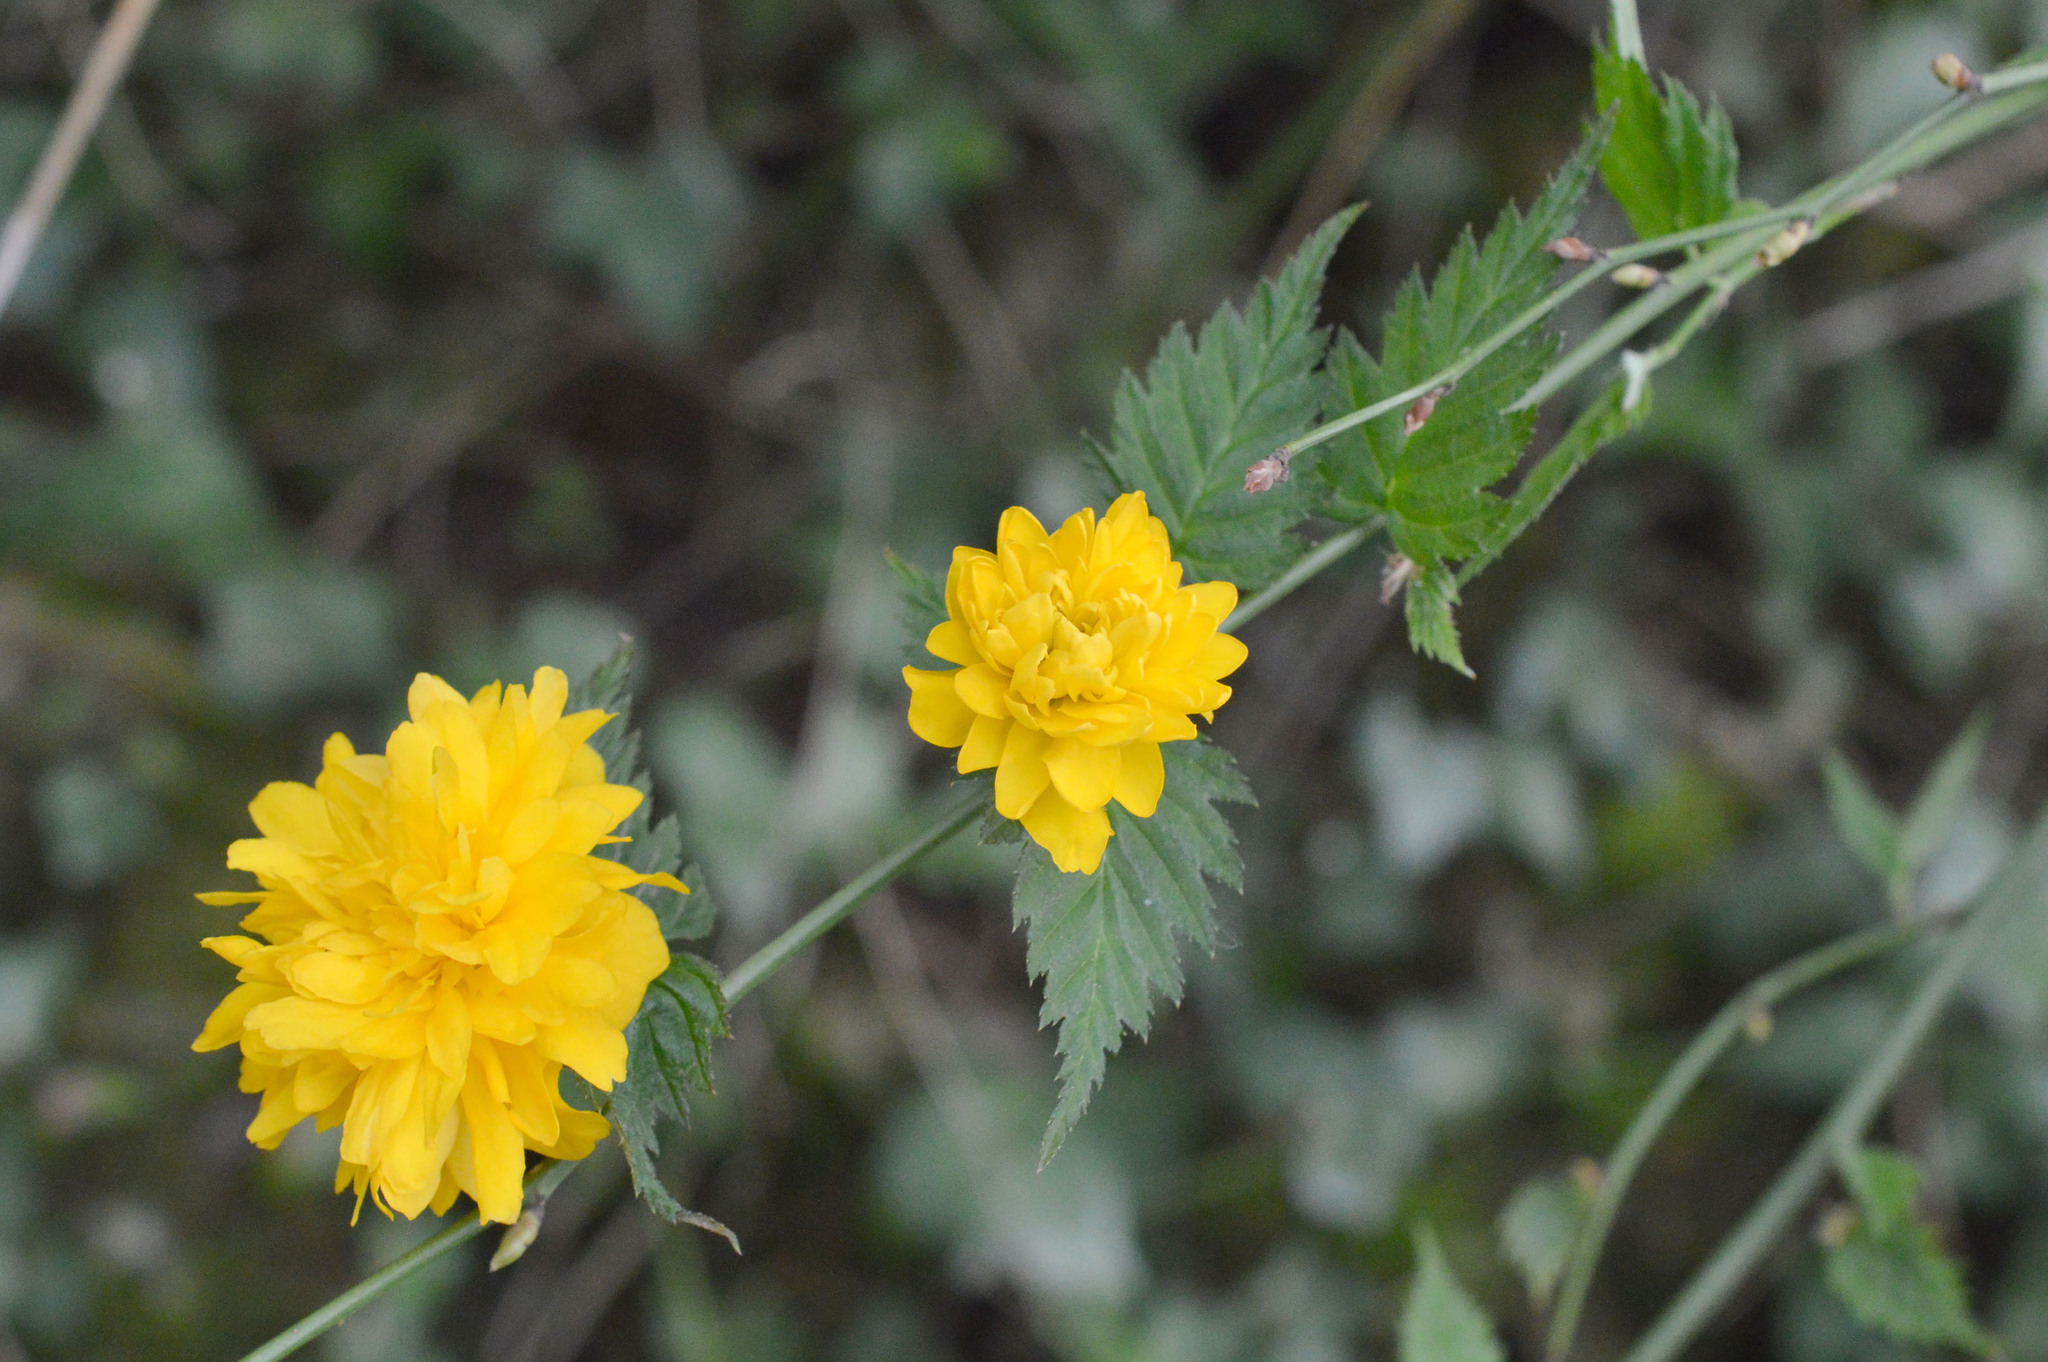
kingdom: Plantae
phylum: Tracheophyta
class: Magnoliopsida
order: Rosales
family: Rosaceae
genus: Kerria
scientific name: Kerria japonica
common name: Japanese kerria
